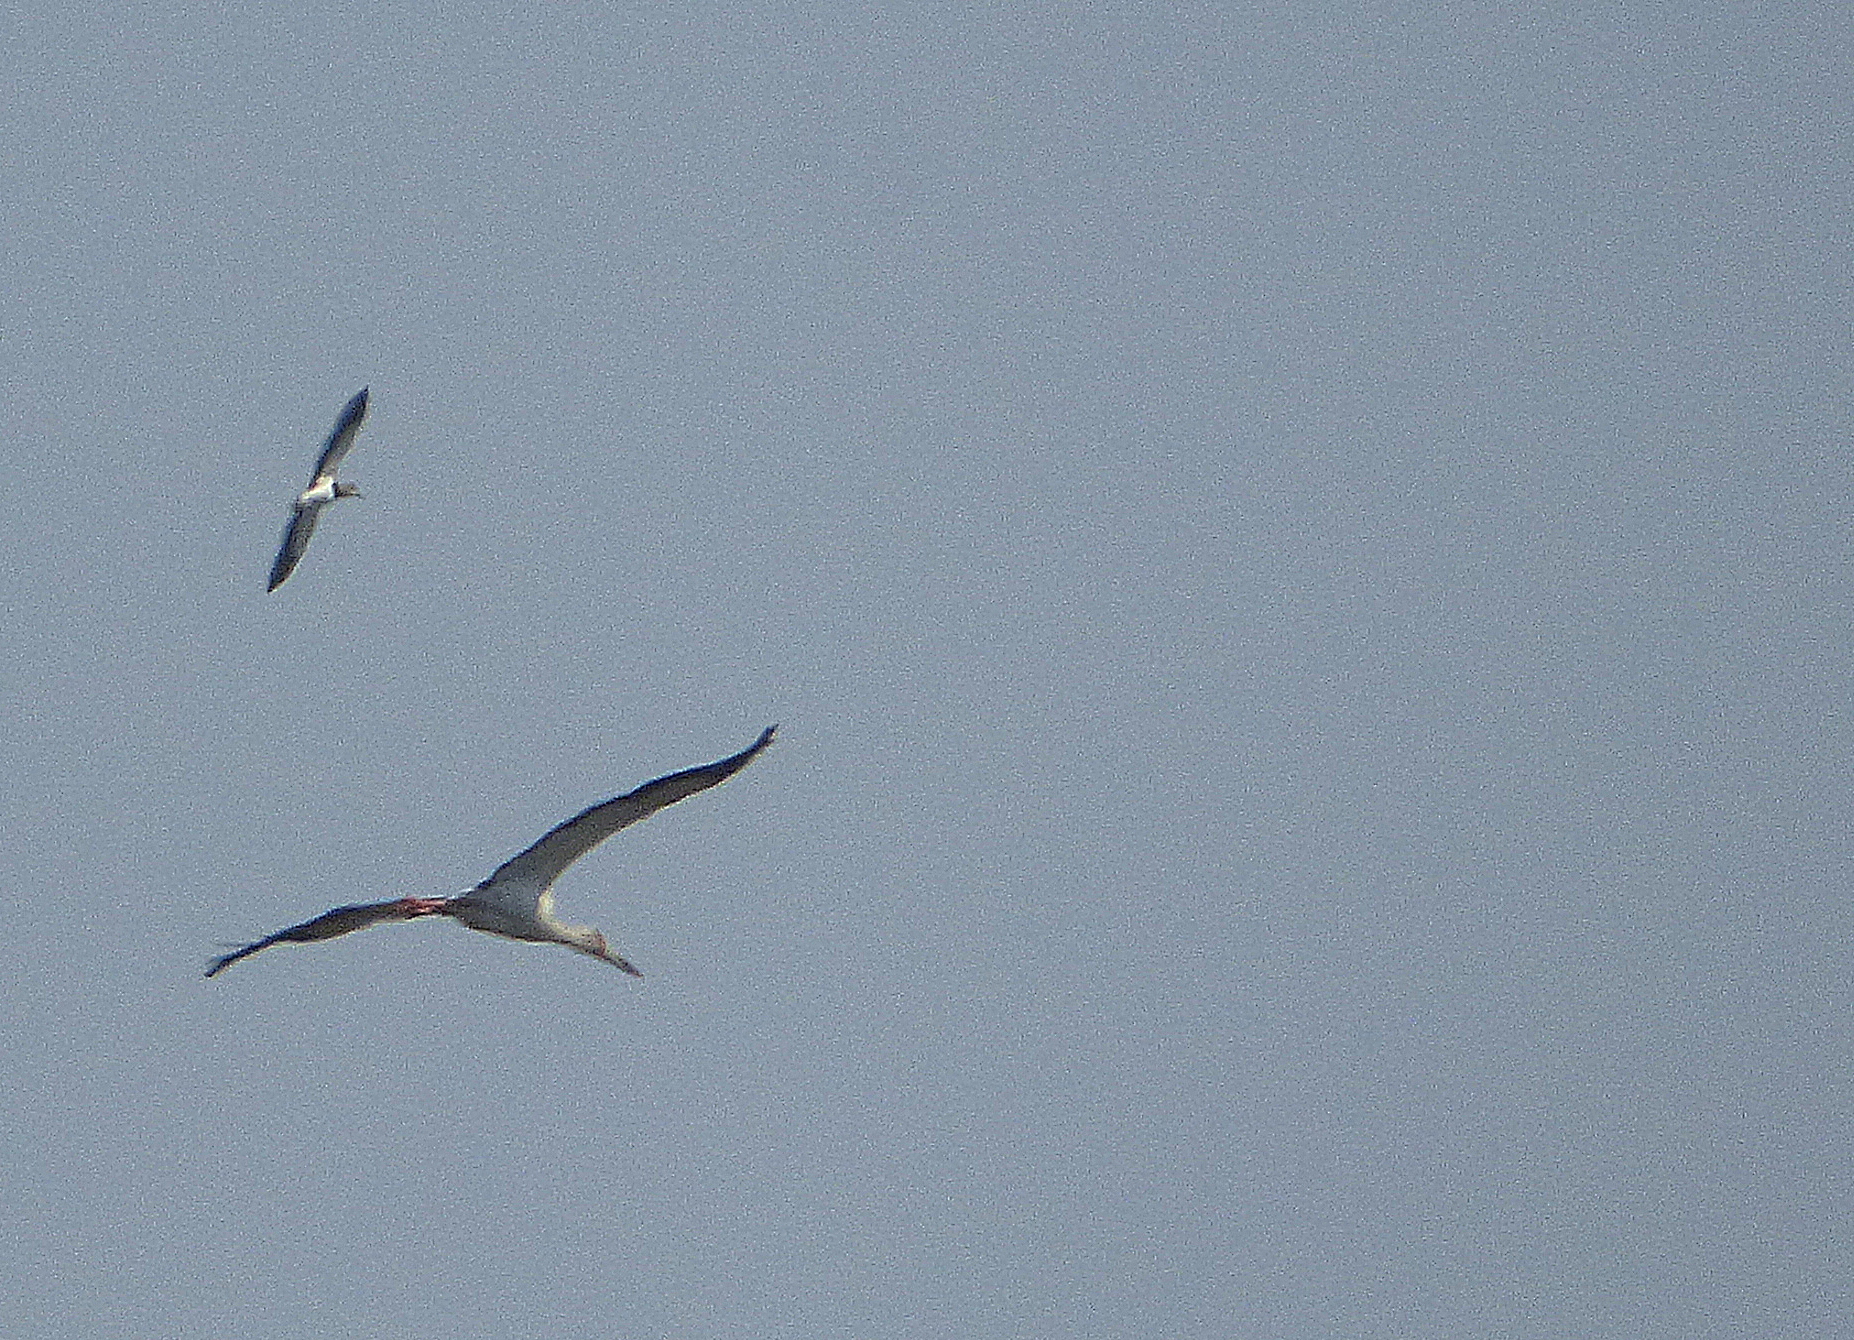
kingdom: Animalia
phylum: Chordata
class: Aves
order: Ciconiiformes
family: Ciconiidae
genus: Ciconia
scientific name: Ciconia maguari
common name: Maguari stork
